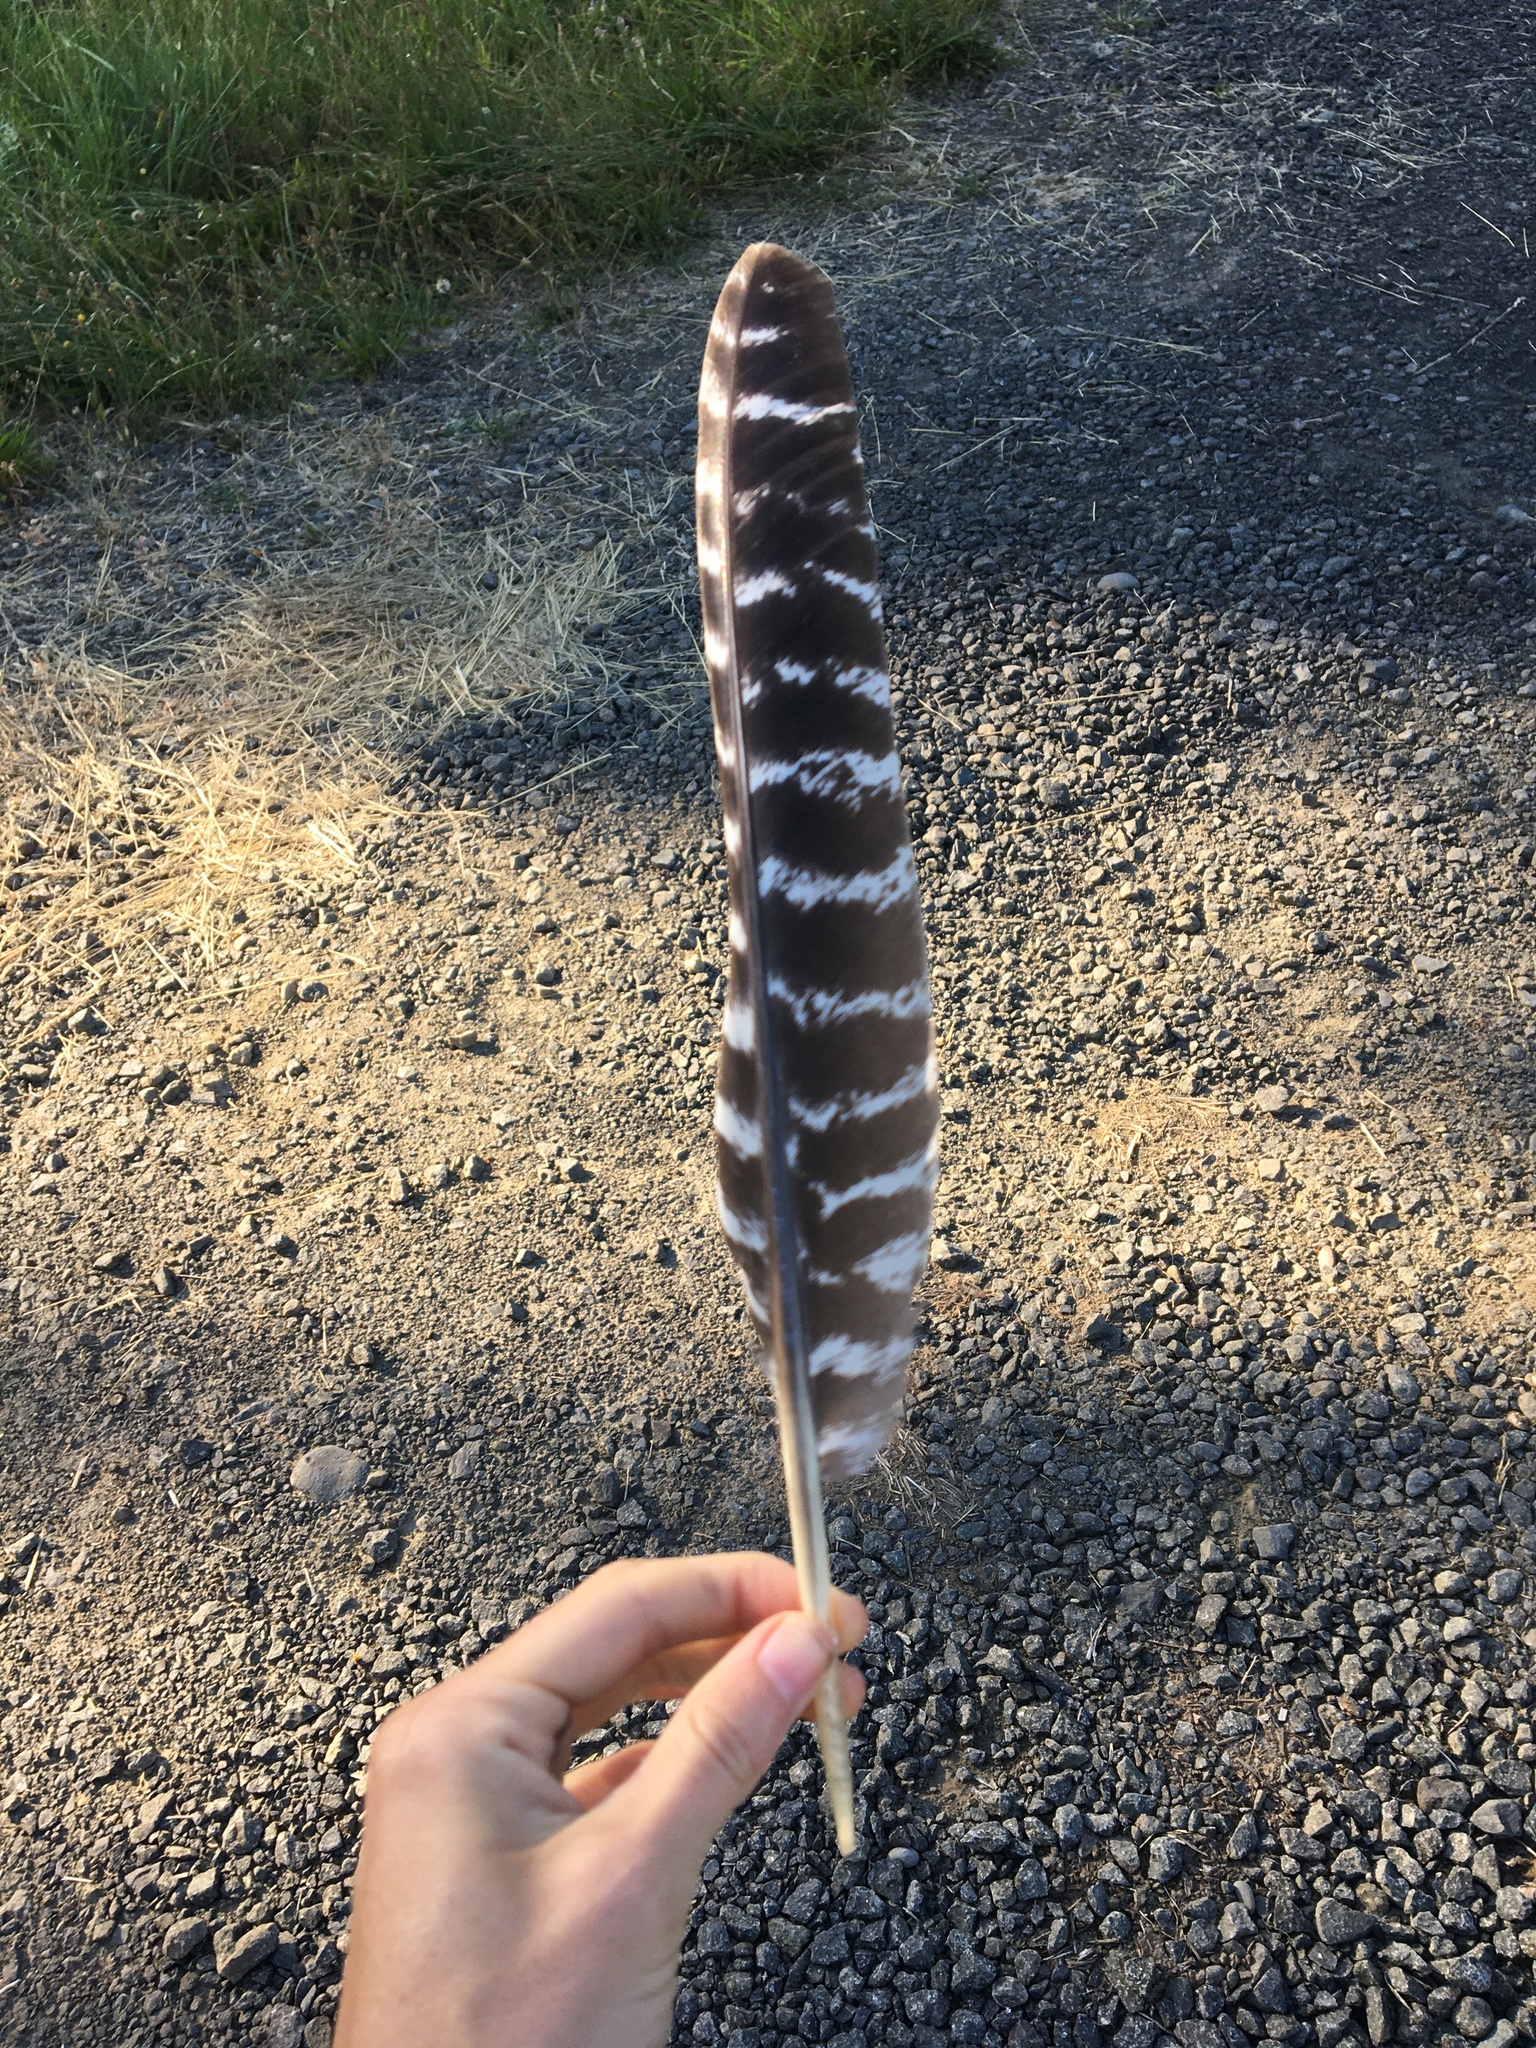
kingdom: Animalia
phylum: Chordata
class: Aves
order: Galliformes
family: Phasianidae
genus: Meleagris
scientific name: Meleagris gallopavo
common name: Wild turkey
